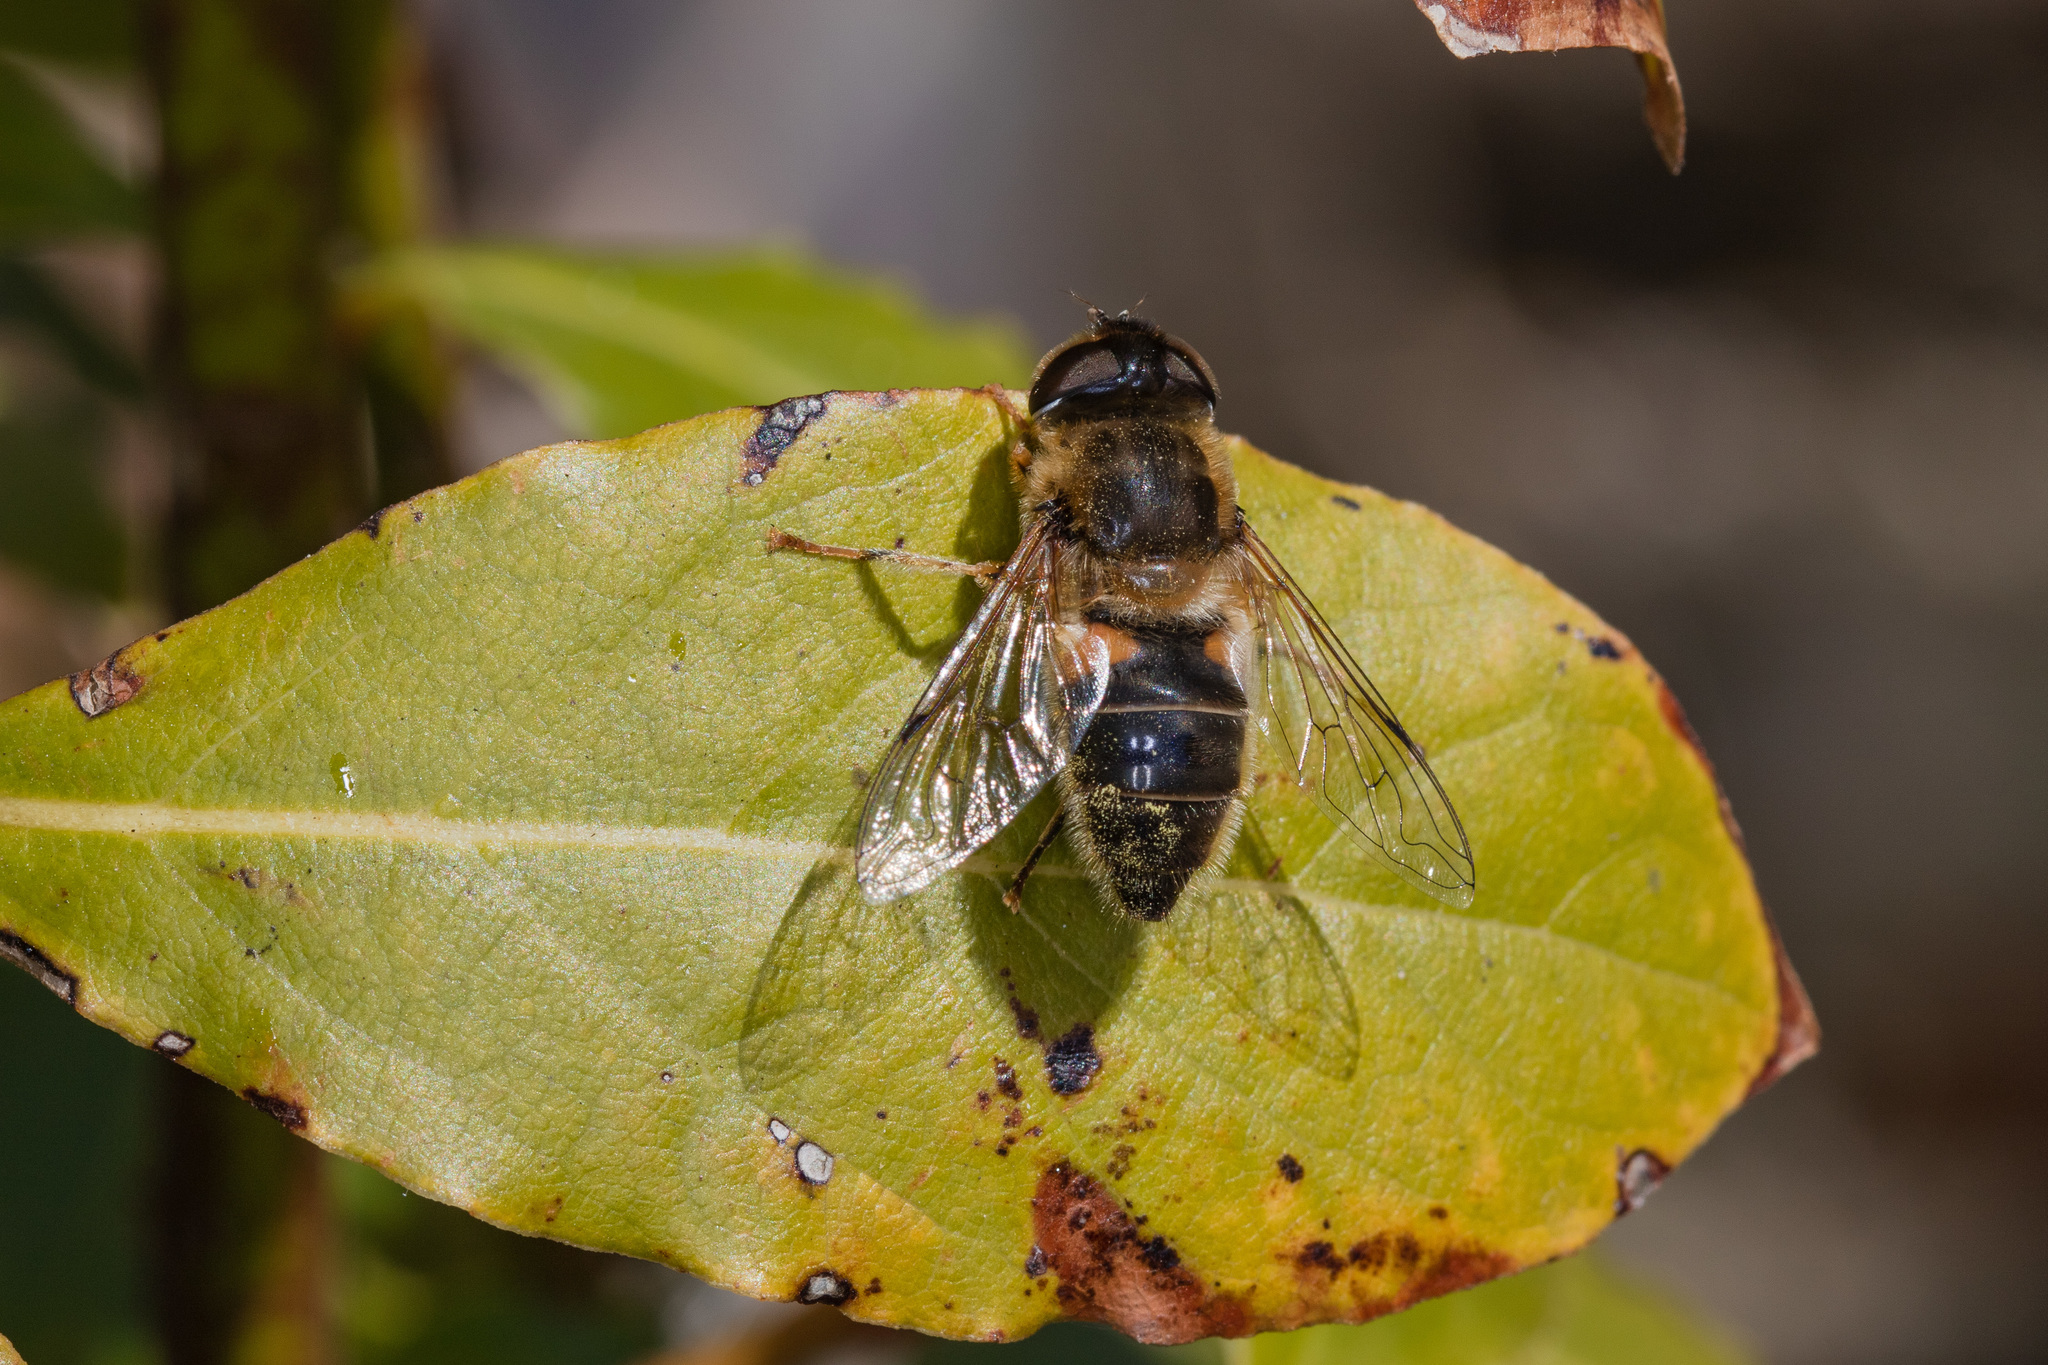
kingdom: Animalia
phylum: Arthropoda
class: Insecta
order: Diptera
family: Syrphidae
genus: Eristalis
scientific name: Eristalis pertinax
